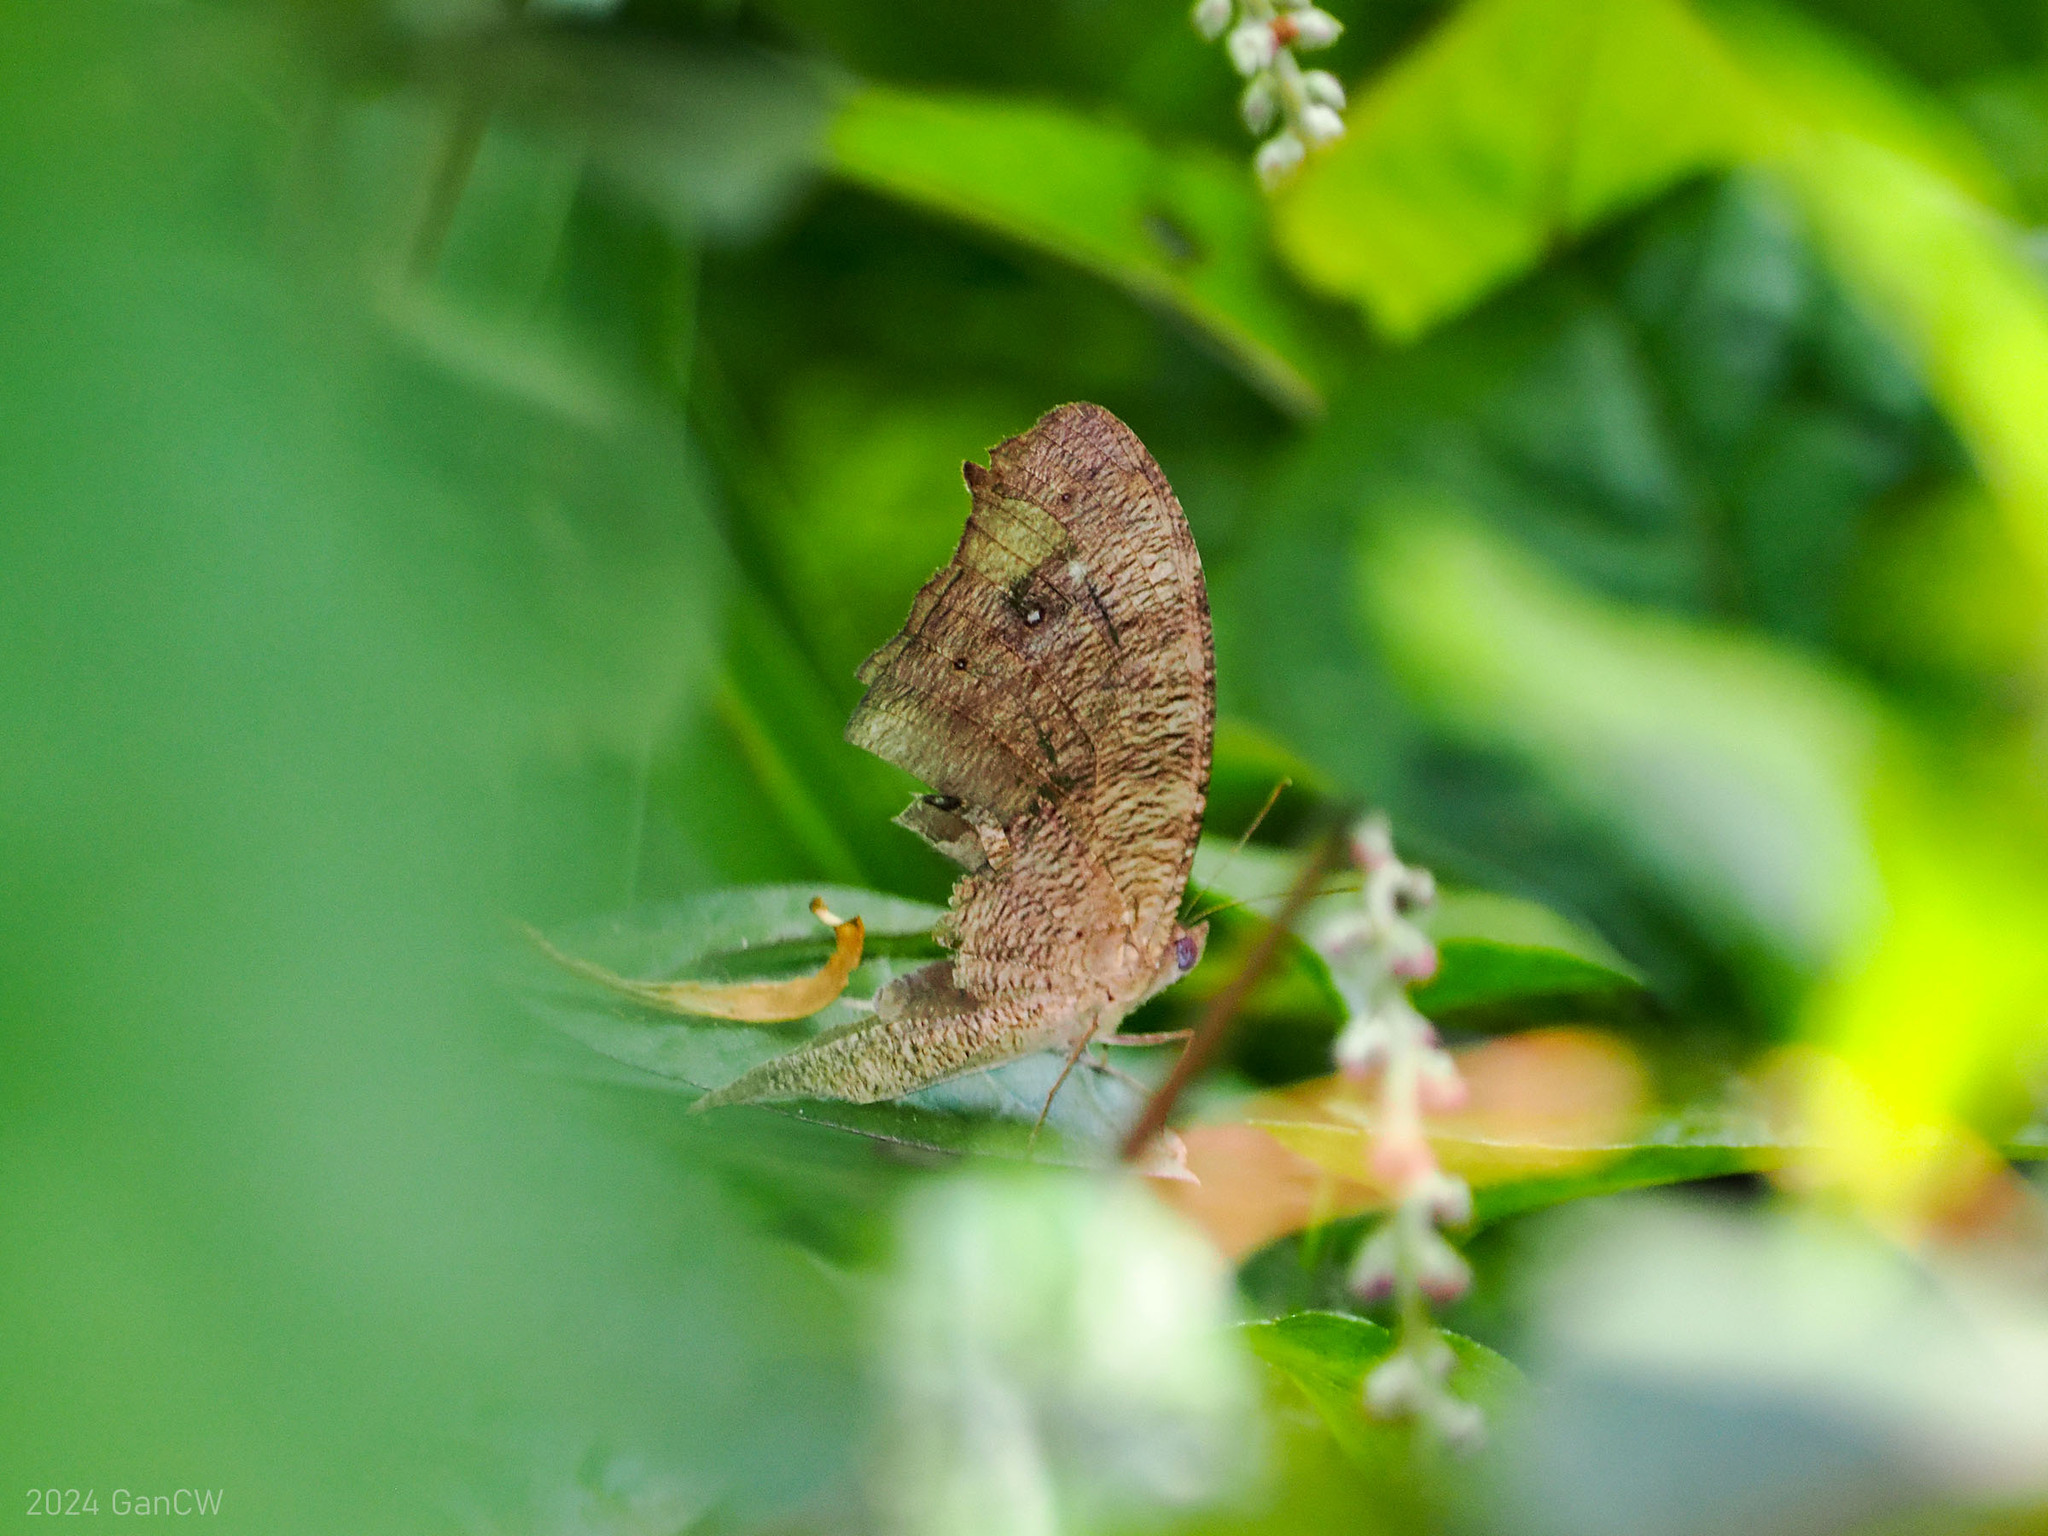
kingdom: Animalia
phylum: Arthropoda
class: Insecta
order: Lepidoptera
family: Nymphalidae
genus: Melanitis
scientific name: Melanitis leda
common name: Twilight brown
